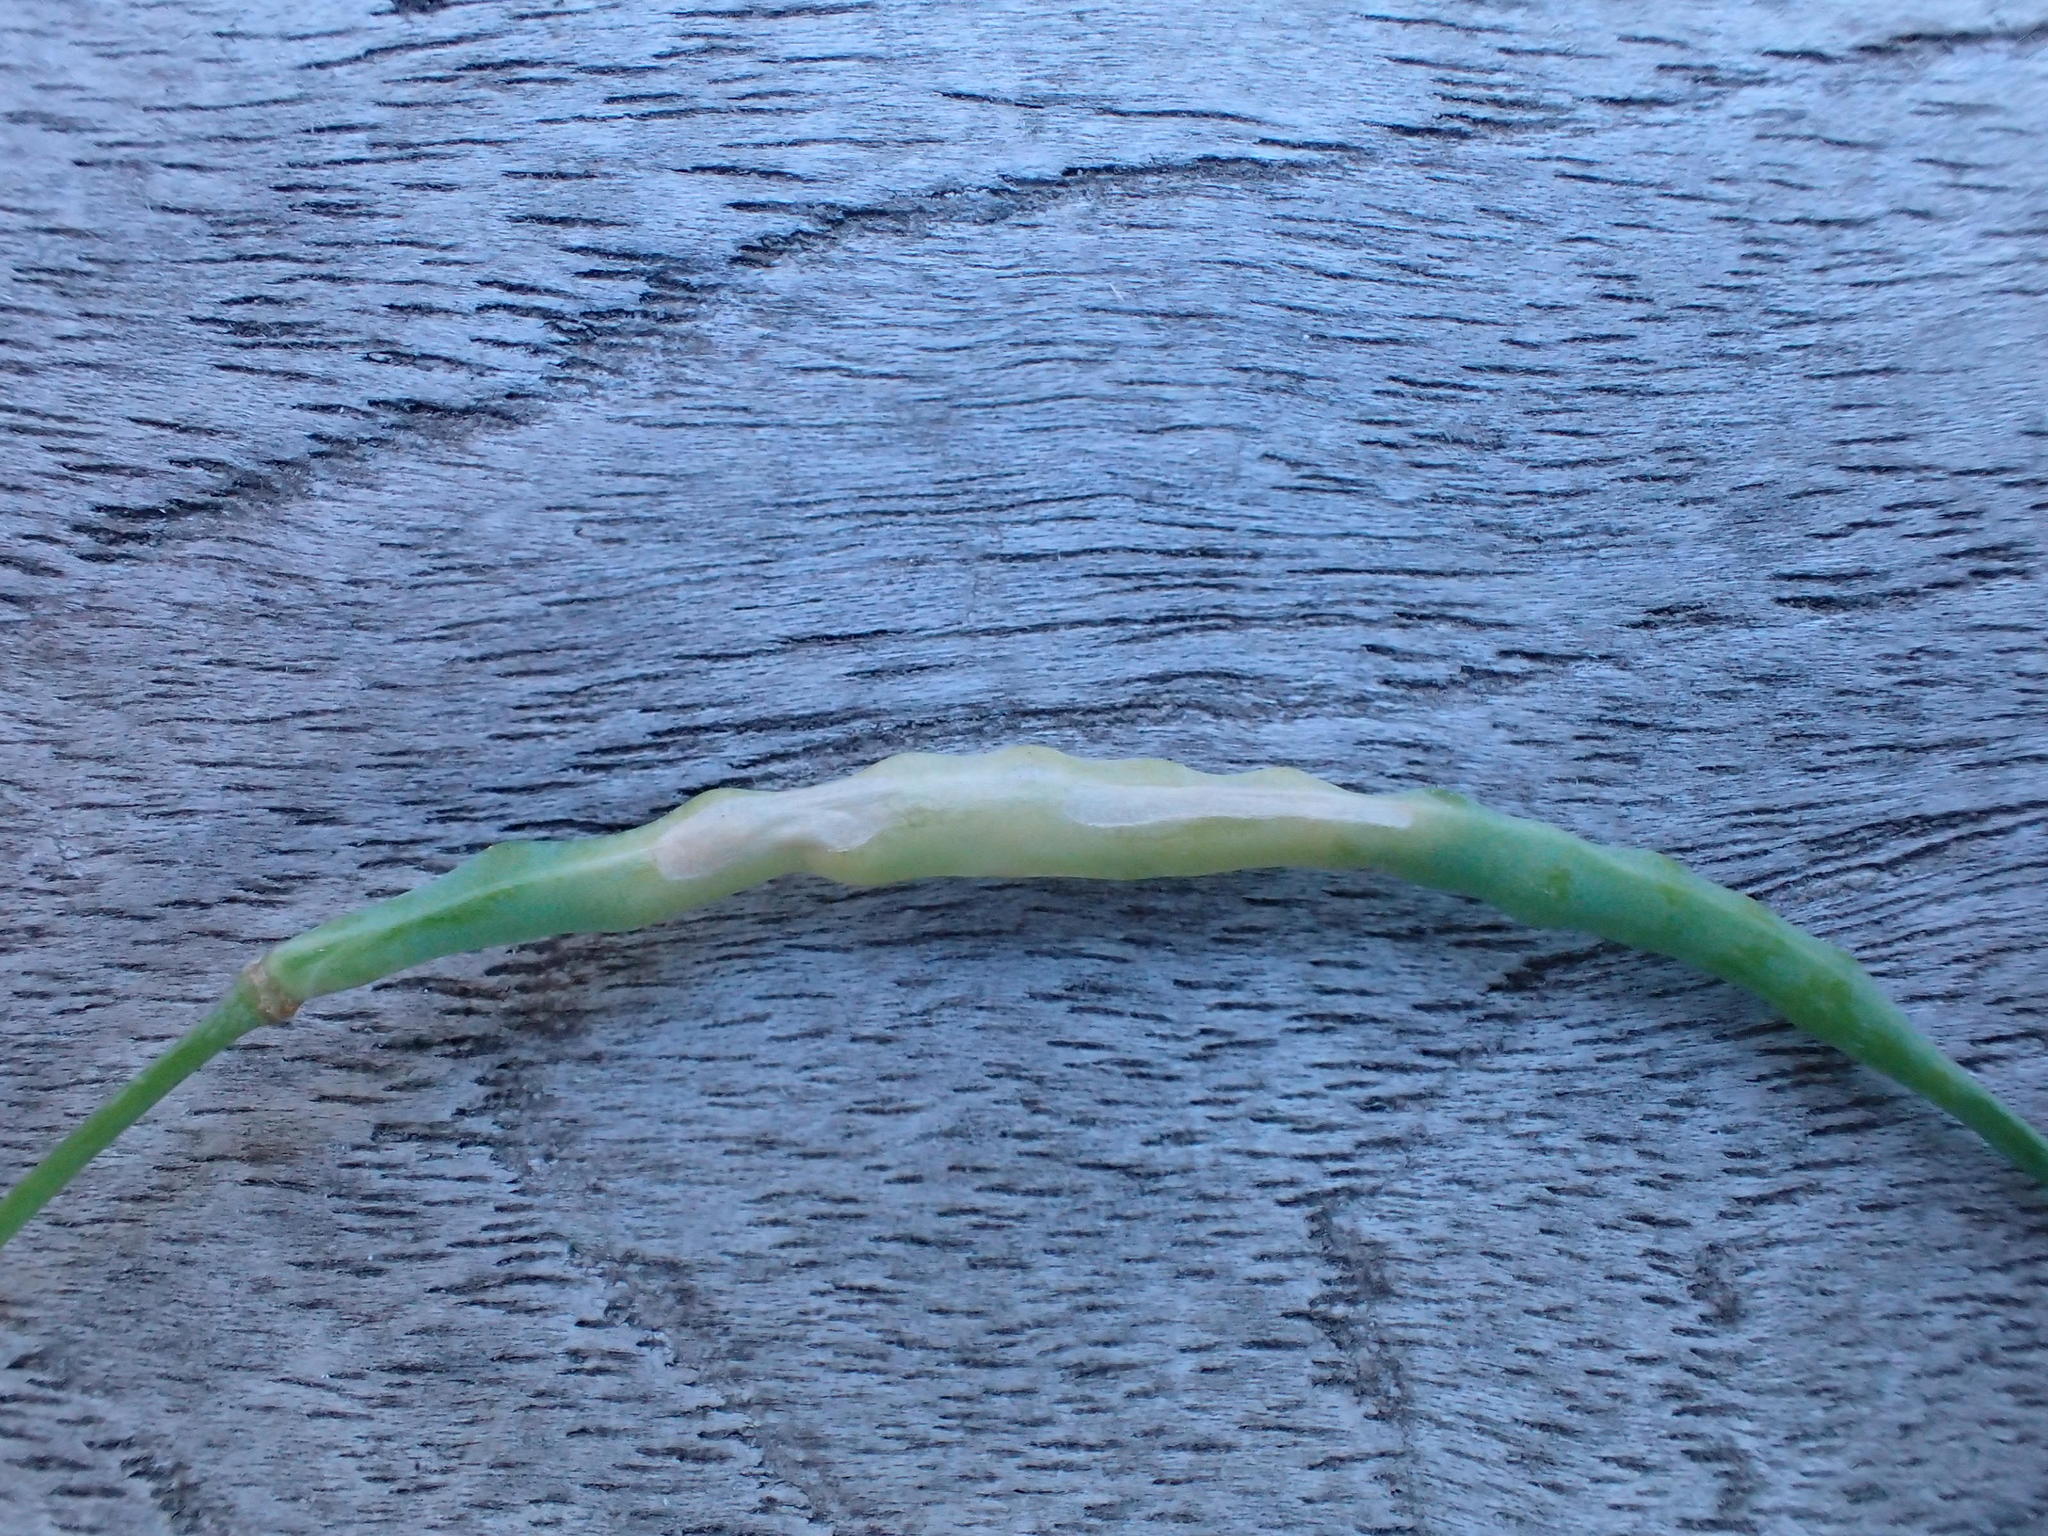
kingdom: Animalia
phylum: Arthropoda
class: Insecta
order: Diptera
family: Cecidomyiidae
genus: Dasineura
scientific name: Dasineura napi
